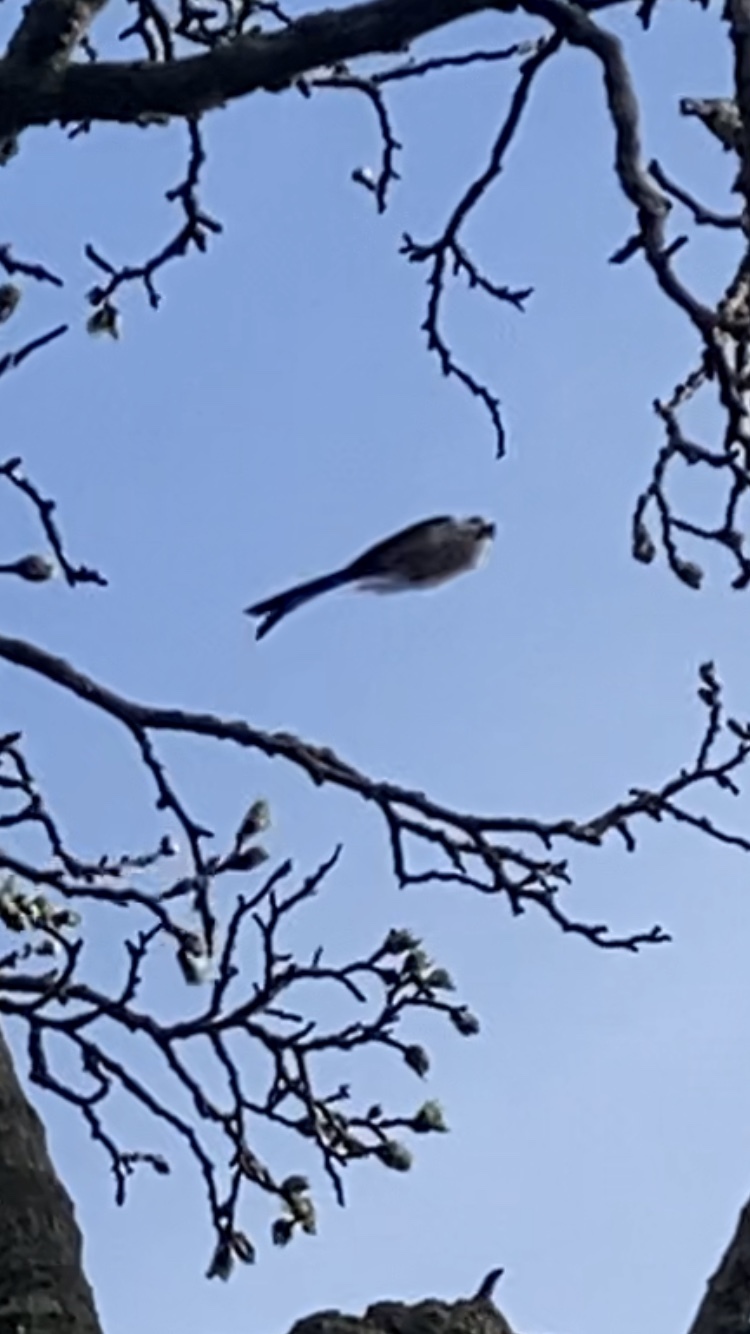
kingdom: Animalia
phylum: Chordata
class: Aves
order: Passeriformes
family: Aegithalidae
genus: Aegithalos
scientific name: Aegithalos caudatus
